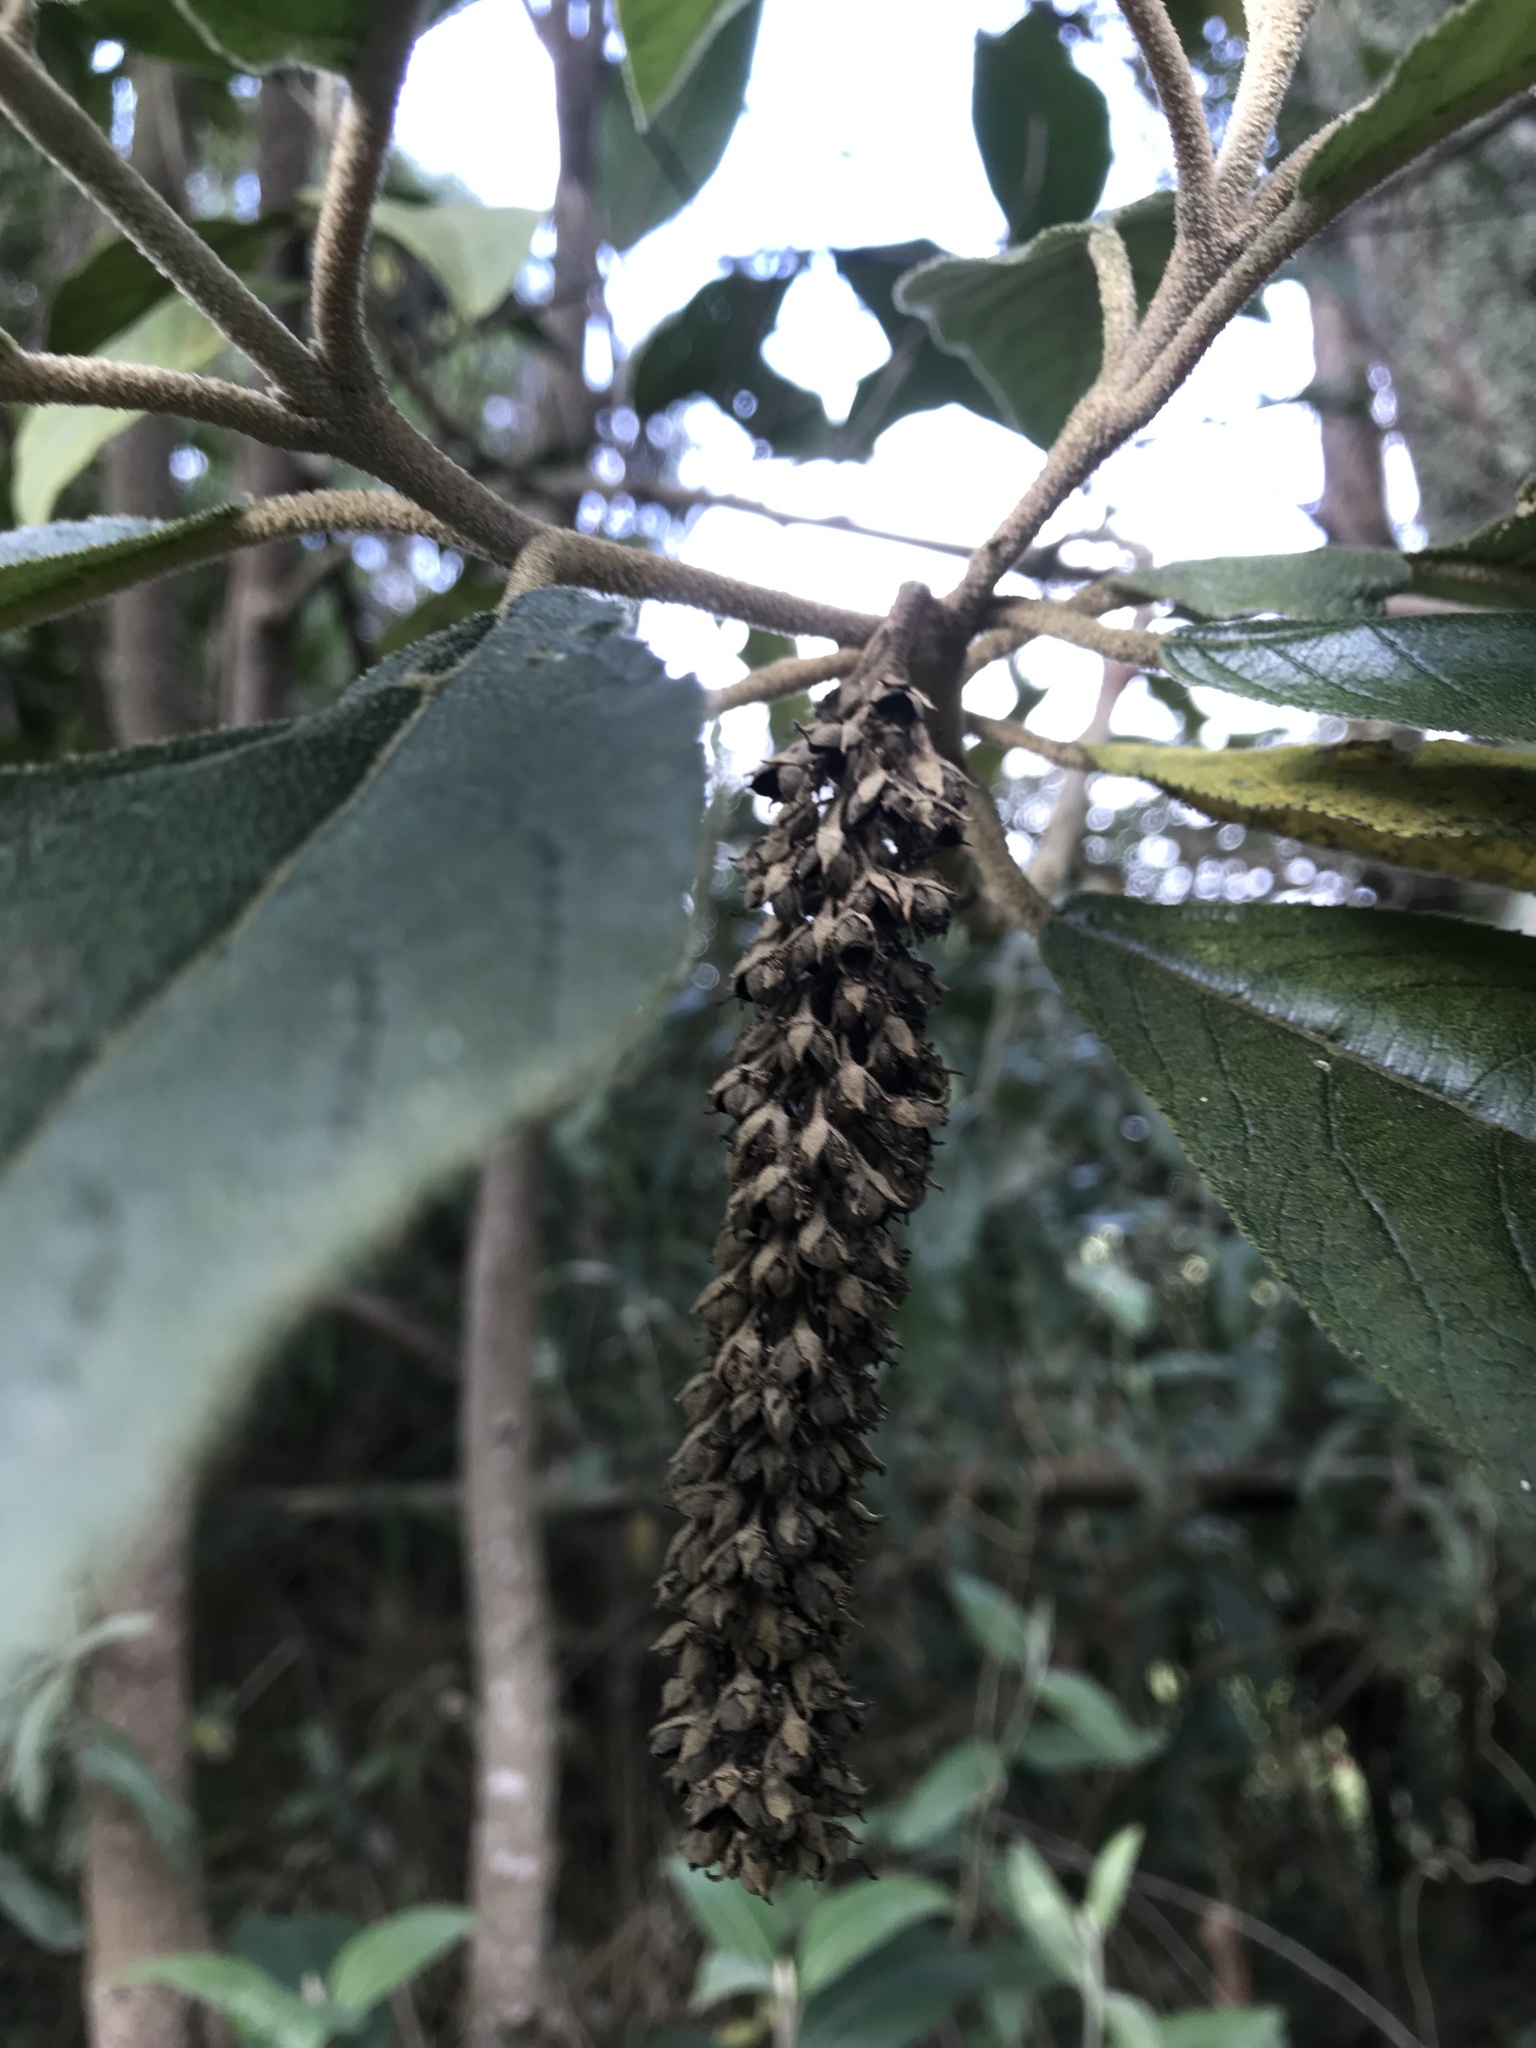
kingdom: Plantae
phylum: Tracheophyta
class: Magnoliopsida
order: Malpighiales
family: Salicaceae
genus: Abatia
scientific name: Abatia parviflora
